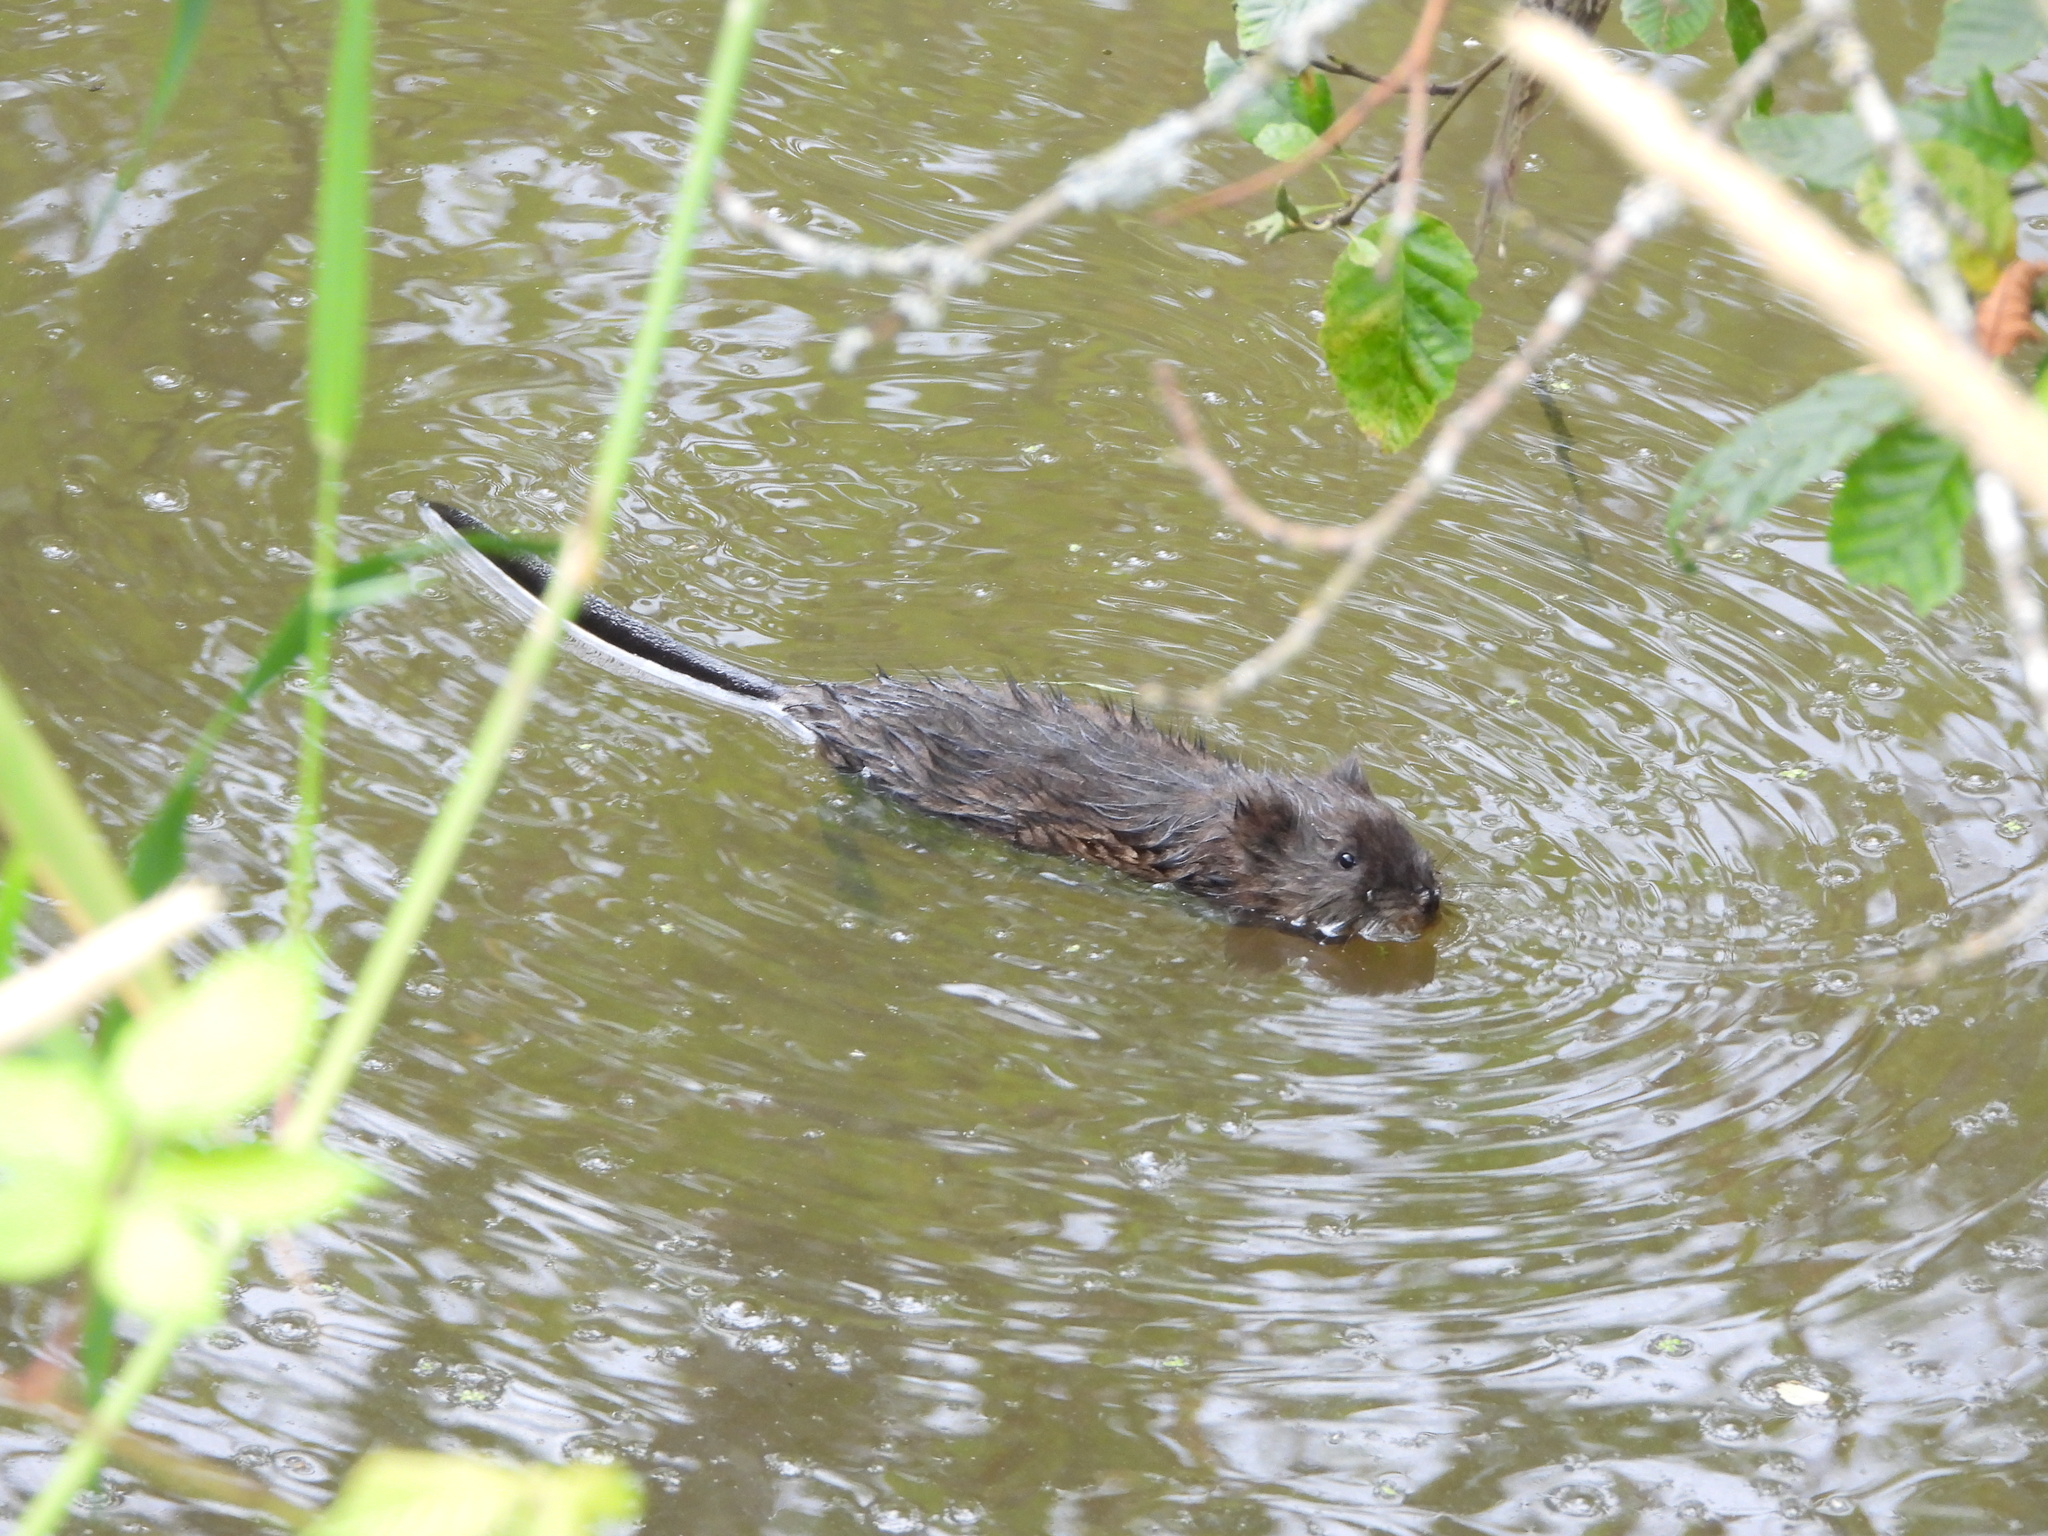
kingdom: Animalia
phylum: Chordata
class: Mammalia
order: Rodentia
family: Cricetidae
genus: Ondatra
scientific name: Ondatra zibethicus
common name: Muskrat
